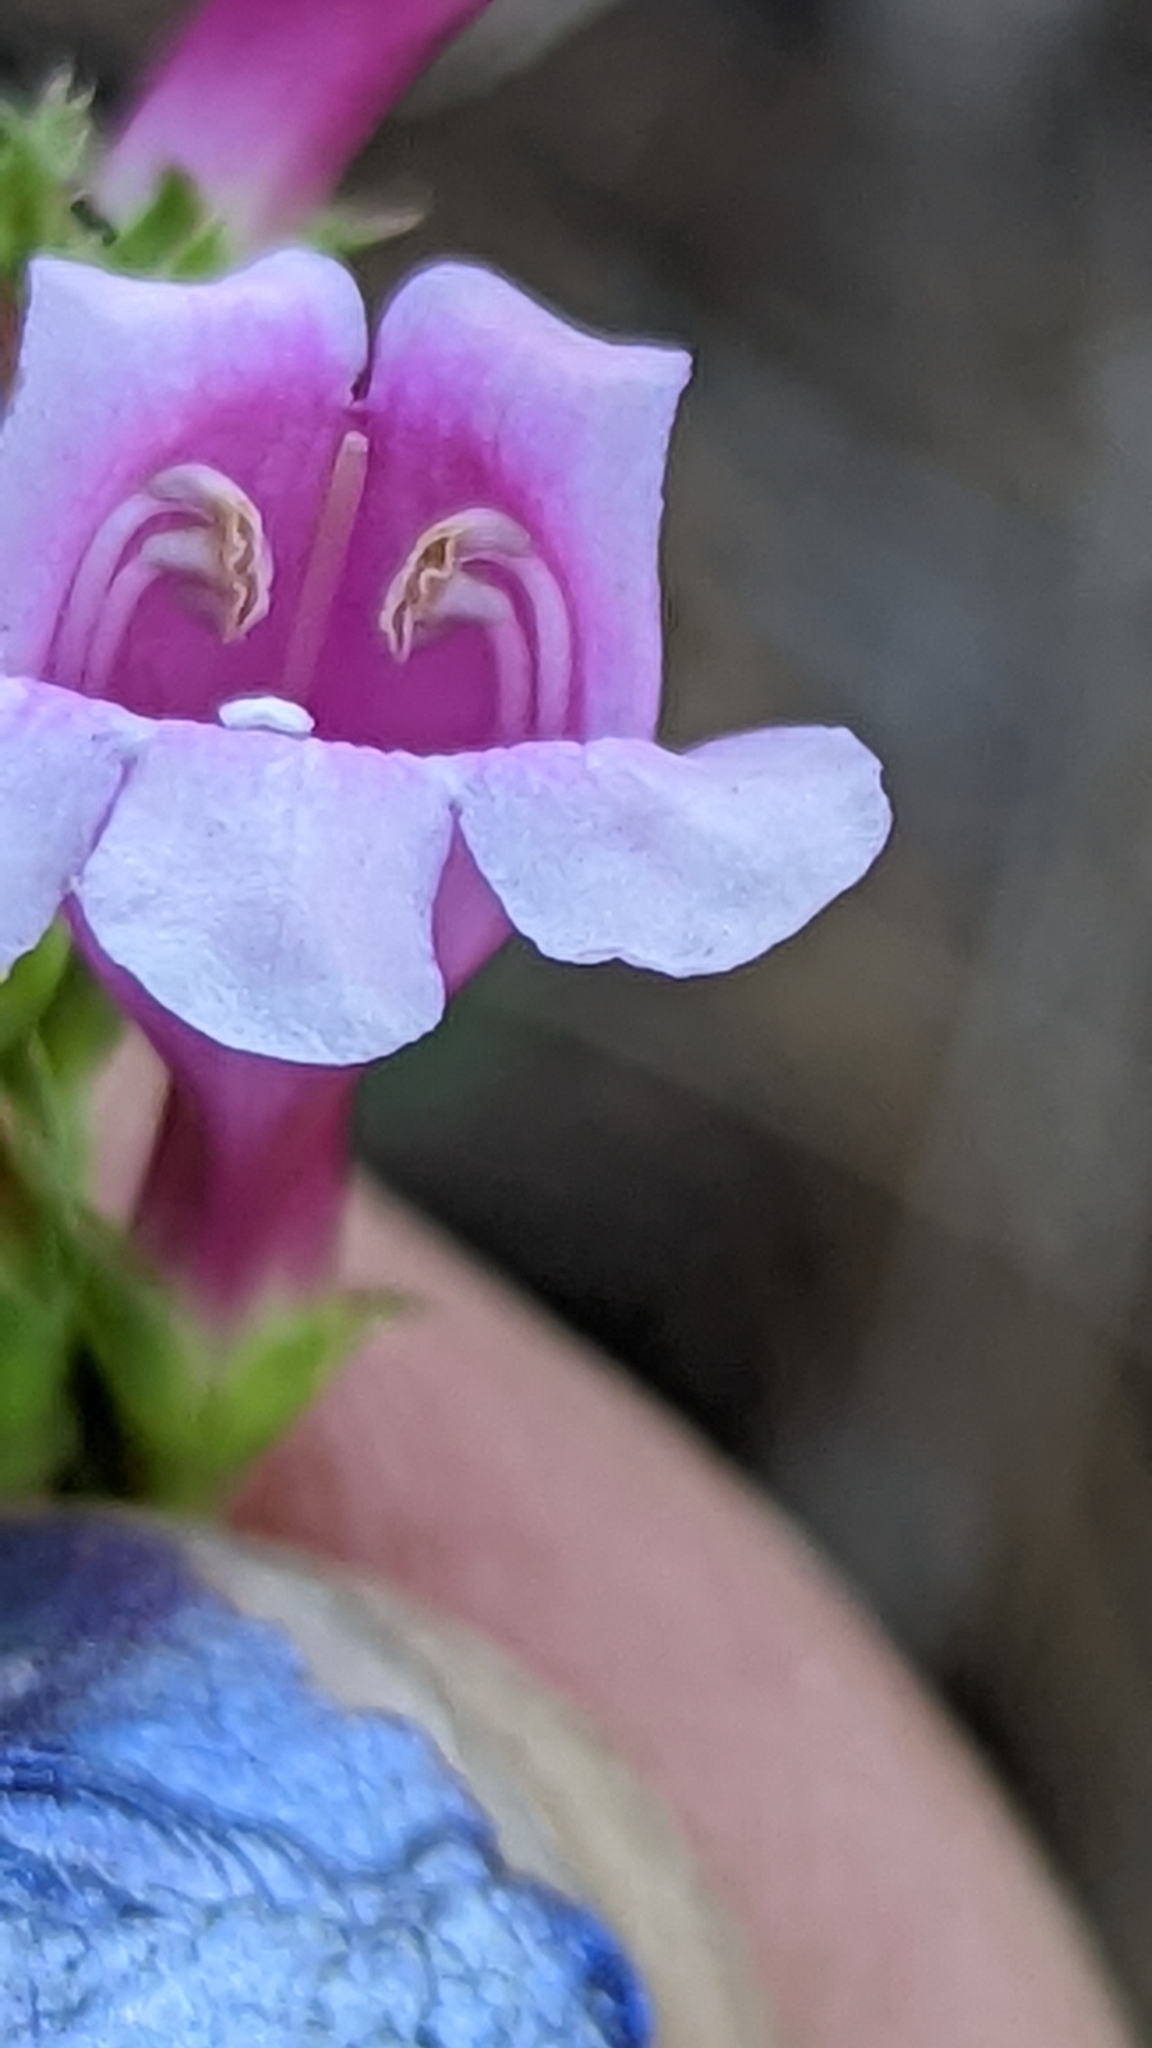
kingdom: Plantae
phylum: Tracheophyta
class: Magnoliopsida
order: Lamiales
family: Plantaginaceae
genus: Penstemon
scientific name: Penstemon leonardii
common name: Leonard's penstemon
